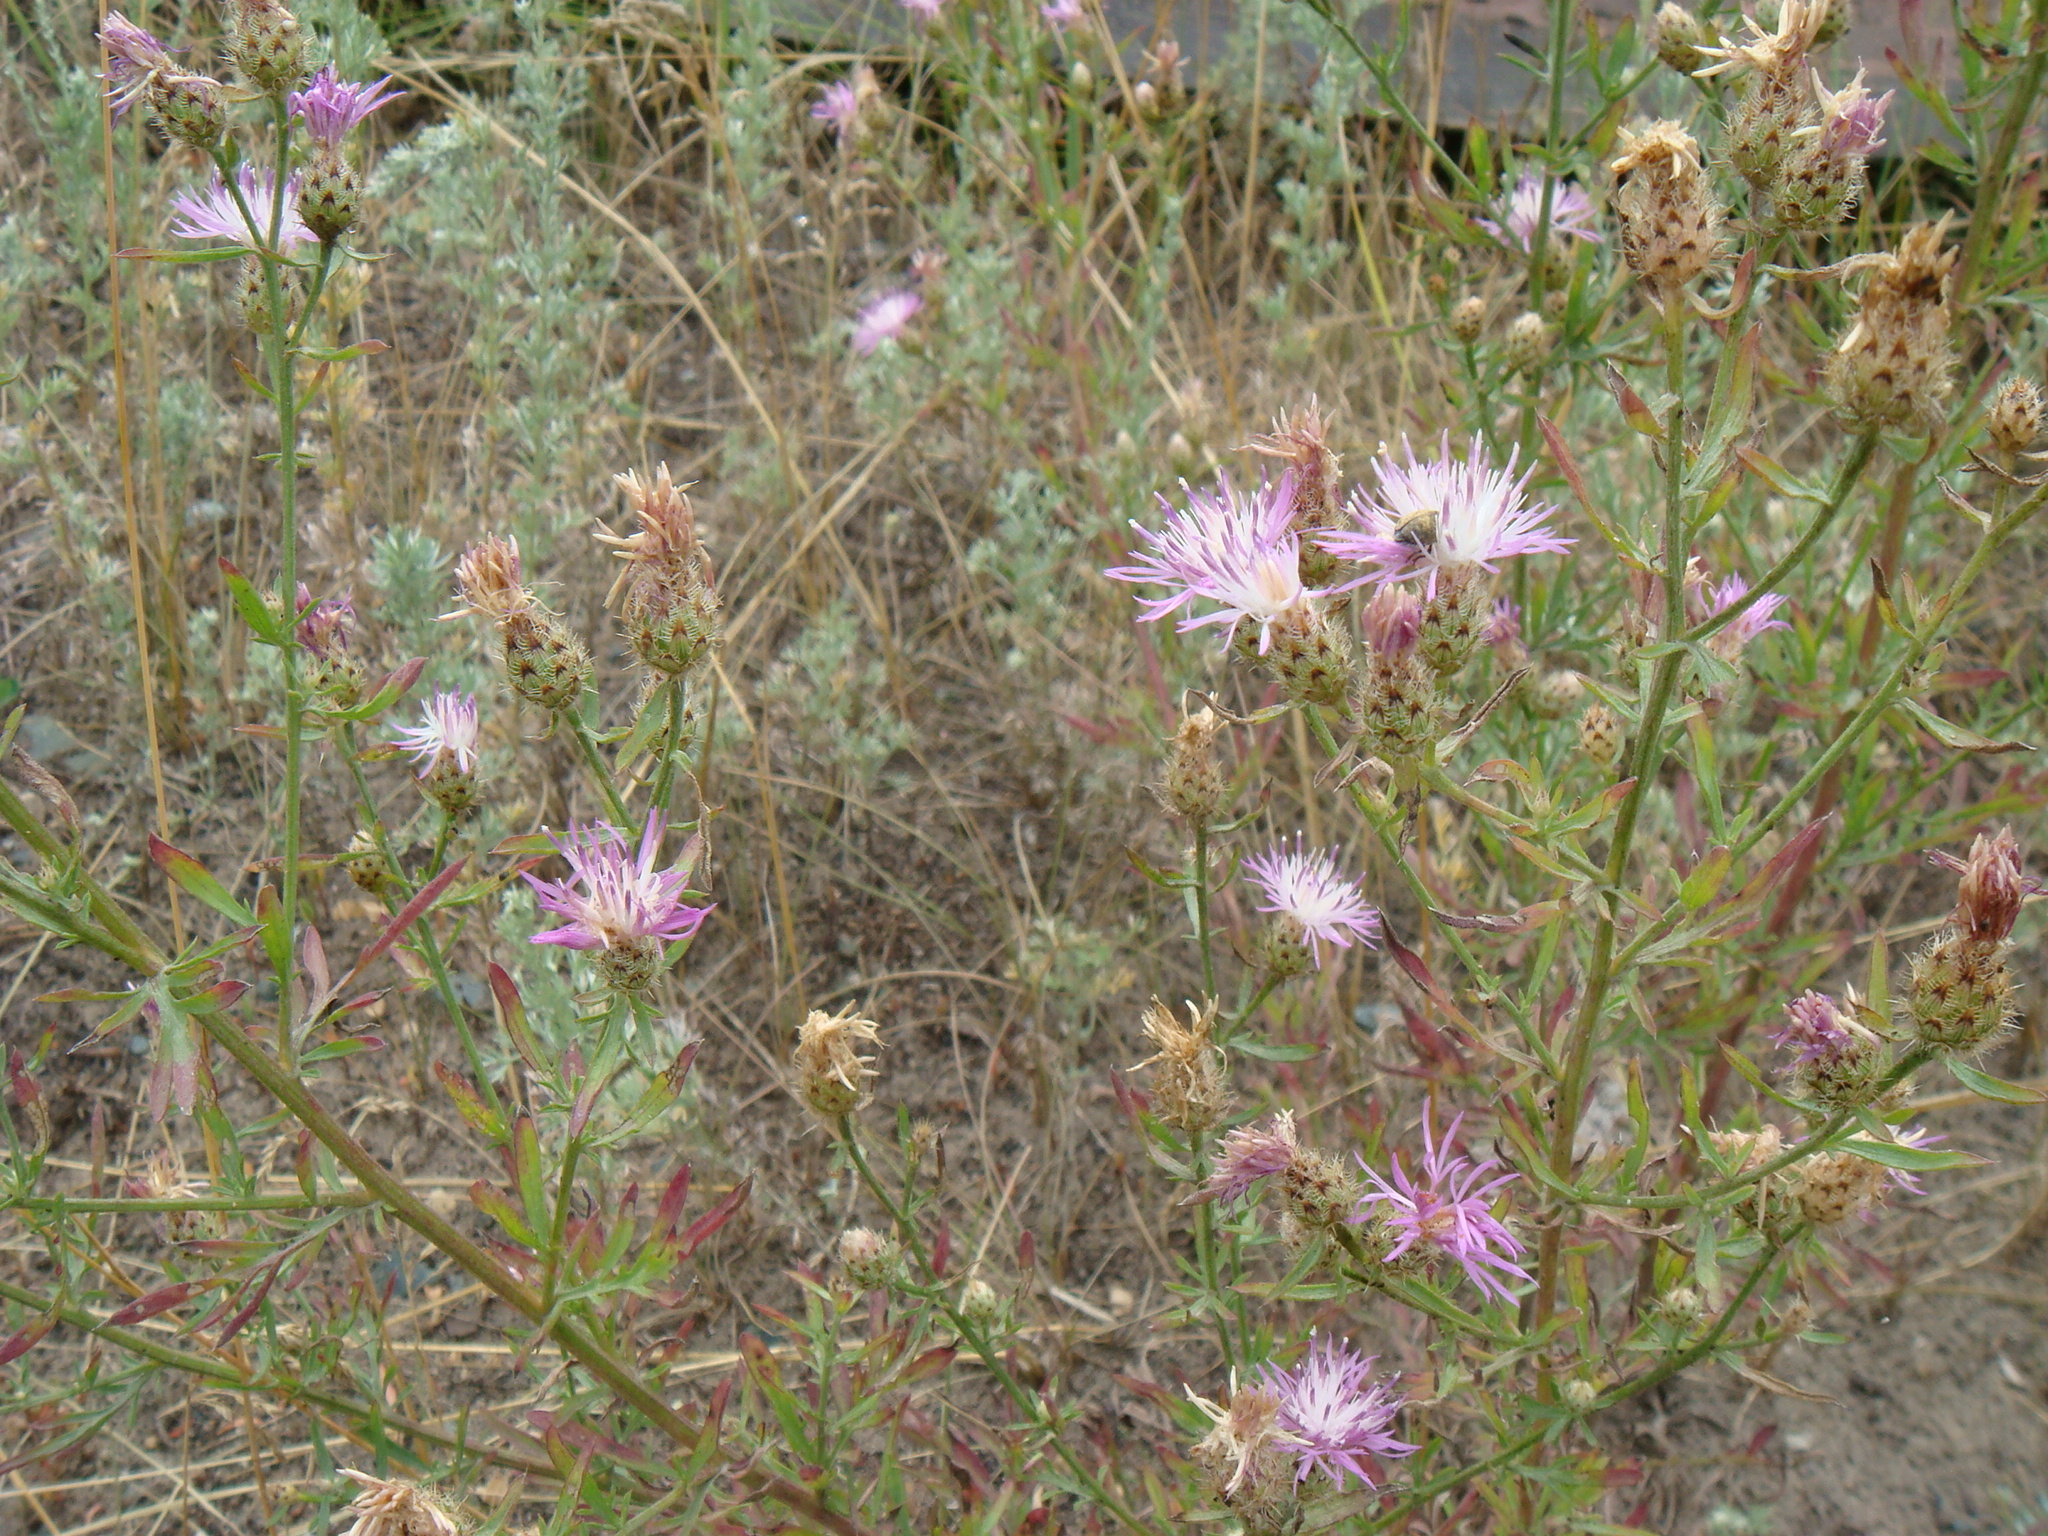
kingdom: Plantae
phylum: Tracheophyta
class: Magnoliopsida
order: Asterales
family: Asteraceae
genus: Centaurea
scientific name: Centaurea stoebe
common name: Spotted knapweed
